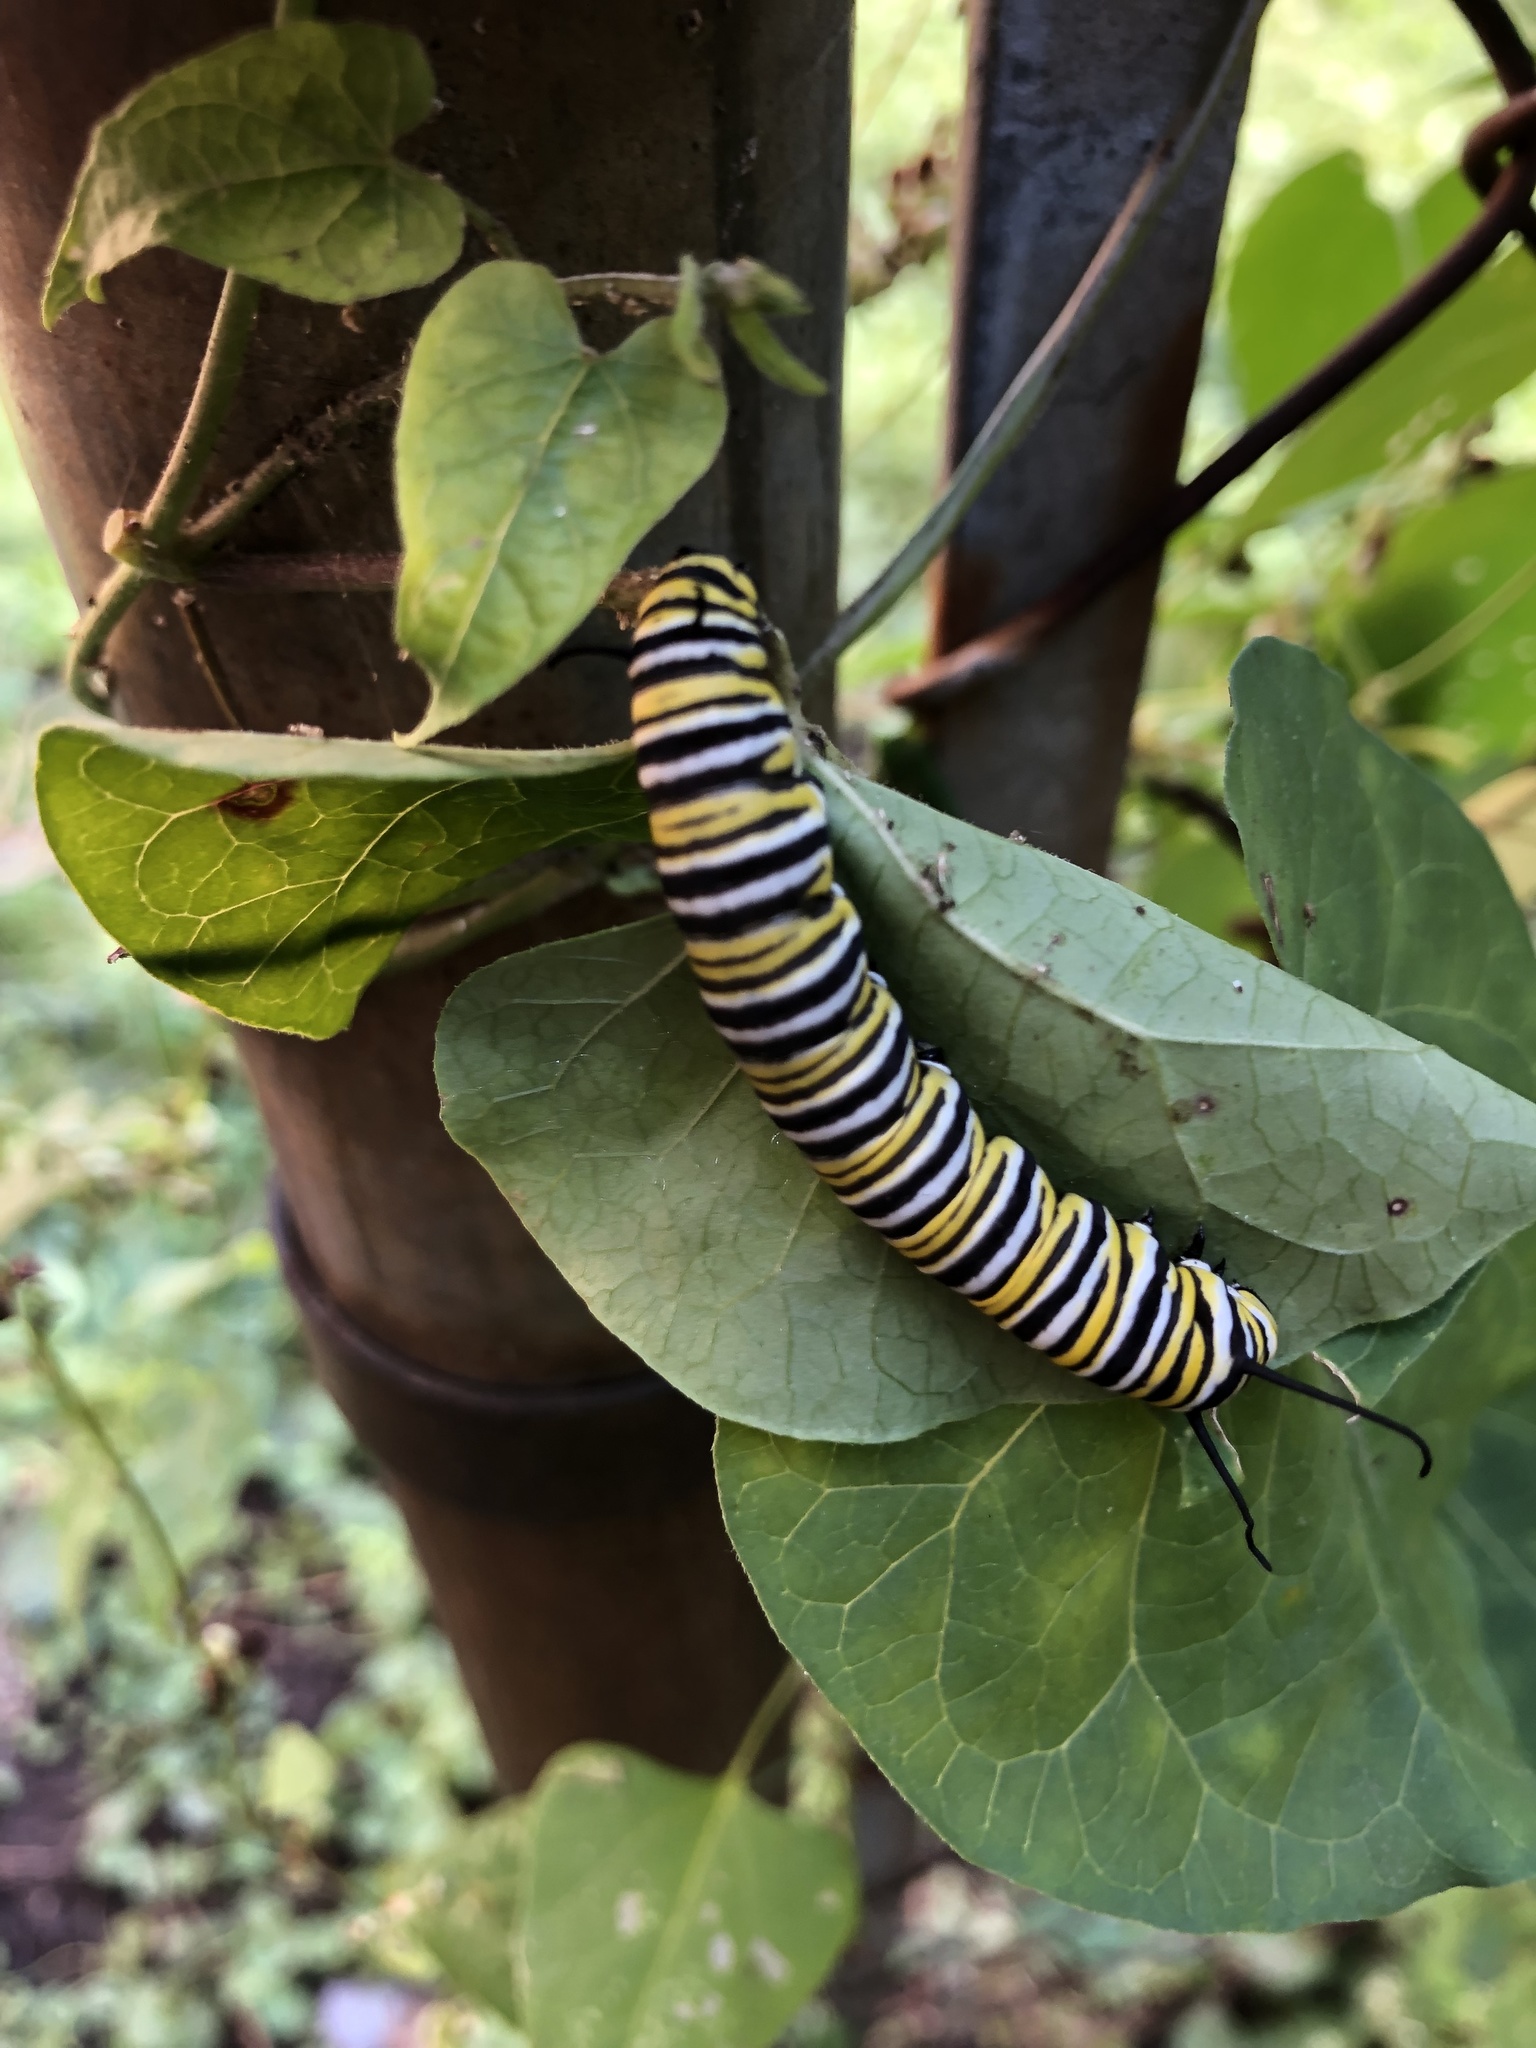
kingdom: Animalia
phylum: Arthropoda
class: Insecta
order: Lepidoptera
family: Nymphalidae
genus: Danaus
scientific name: Danaus plexippus
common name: Monarch
